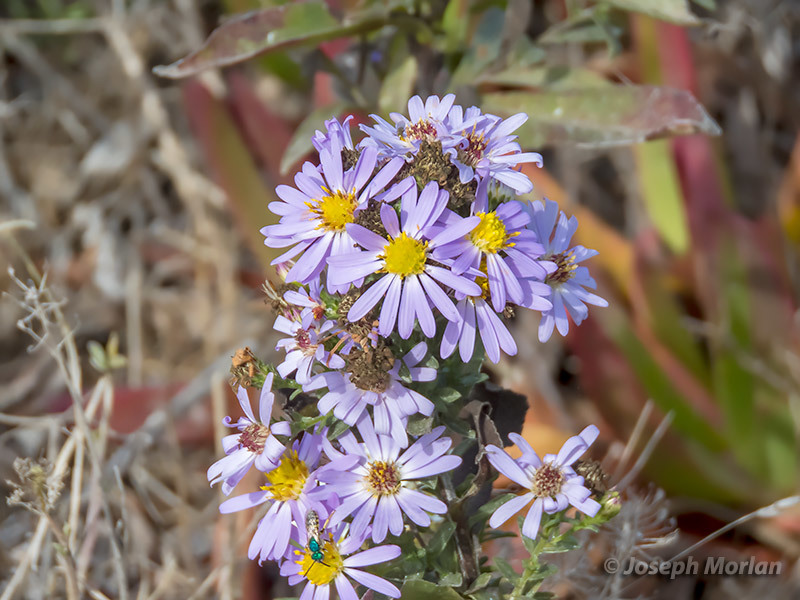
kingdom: Plantae
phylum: Tracheophyta
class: Magnoliopsida
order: Asterales
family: Asteraceae
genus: Symphyotrichum
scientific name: Symphyotrichum chilense
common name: Pacific aster
